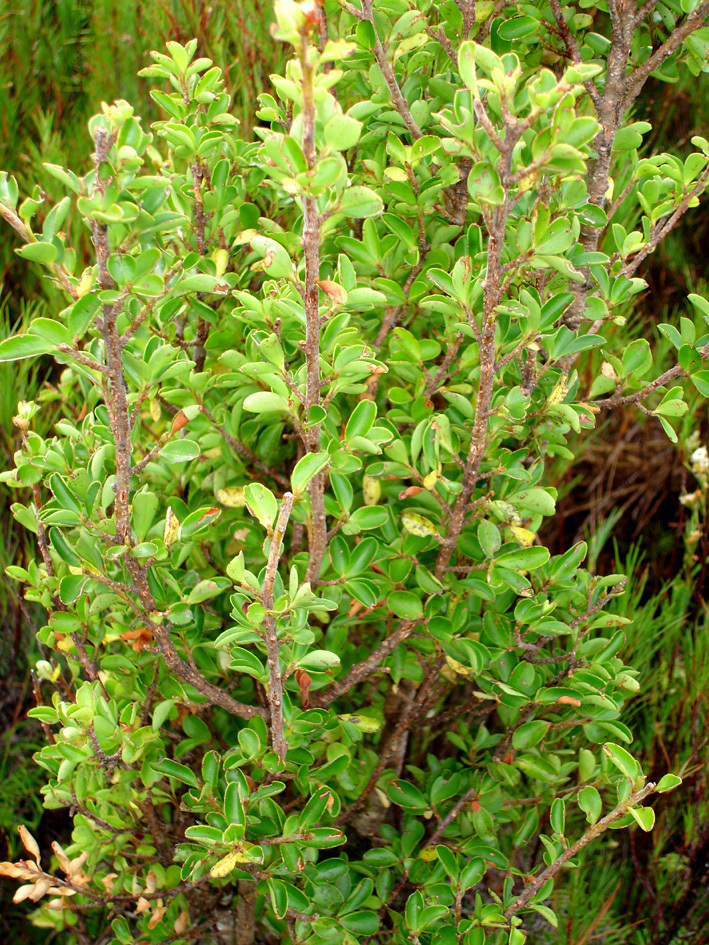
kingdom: Plantae
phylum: Tracheophyta
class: Magnoliopsida
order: Ericales
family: Primulaceae
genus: Myrsine
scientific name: Myrsine coxii
